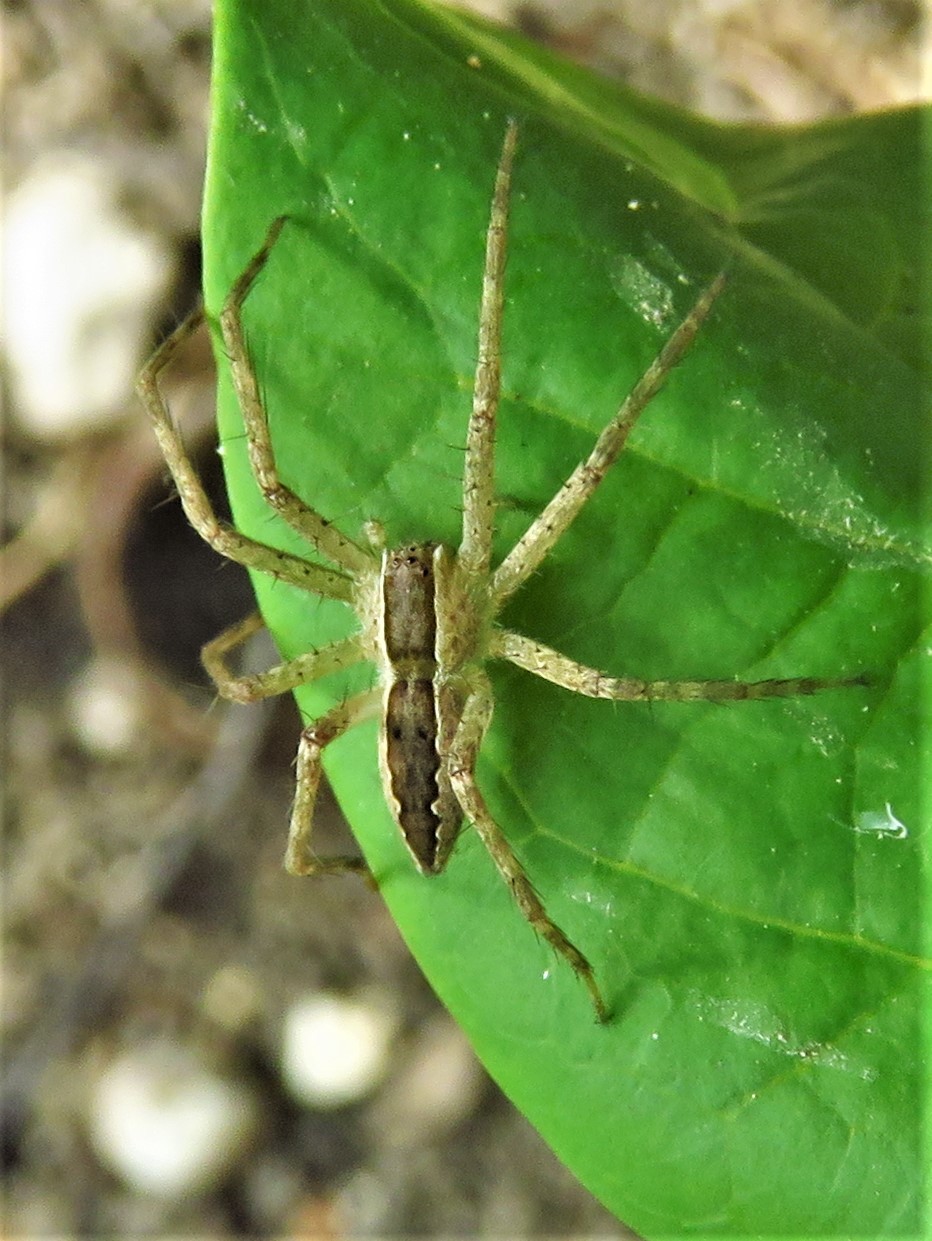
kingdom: Animalia
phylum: Arthropoda
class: Arachnida
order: Araneae
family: Pisauridae
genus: Pisaurina
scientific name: Pisaurina mira
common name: American nursery web spider
